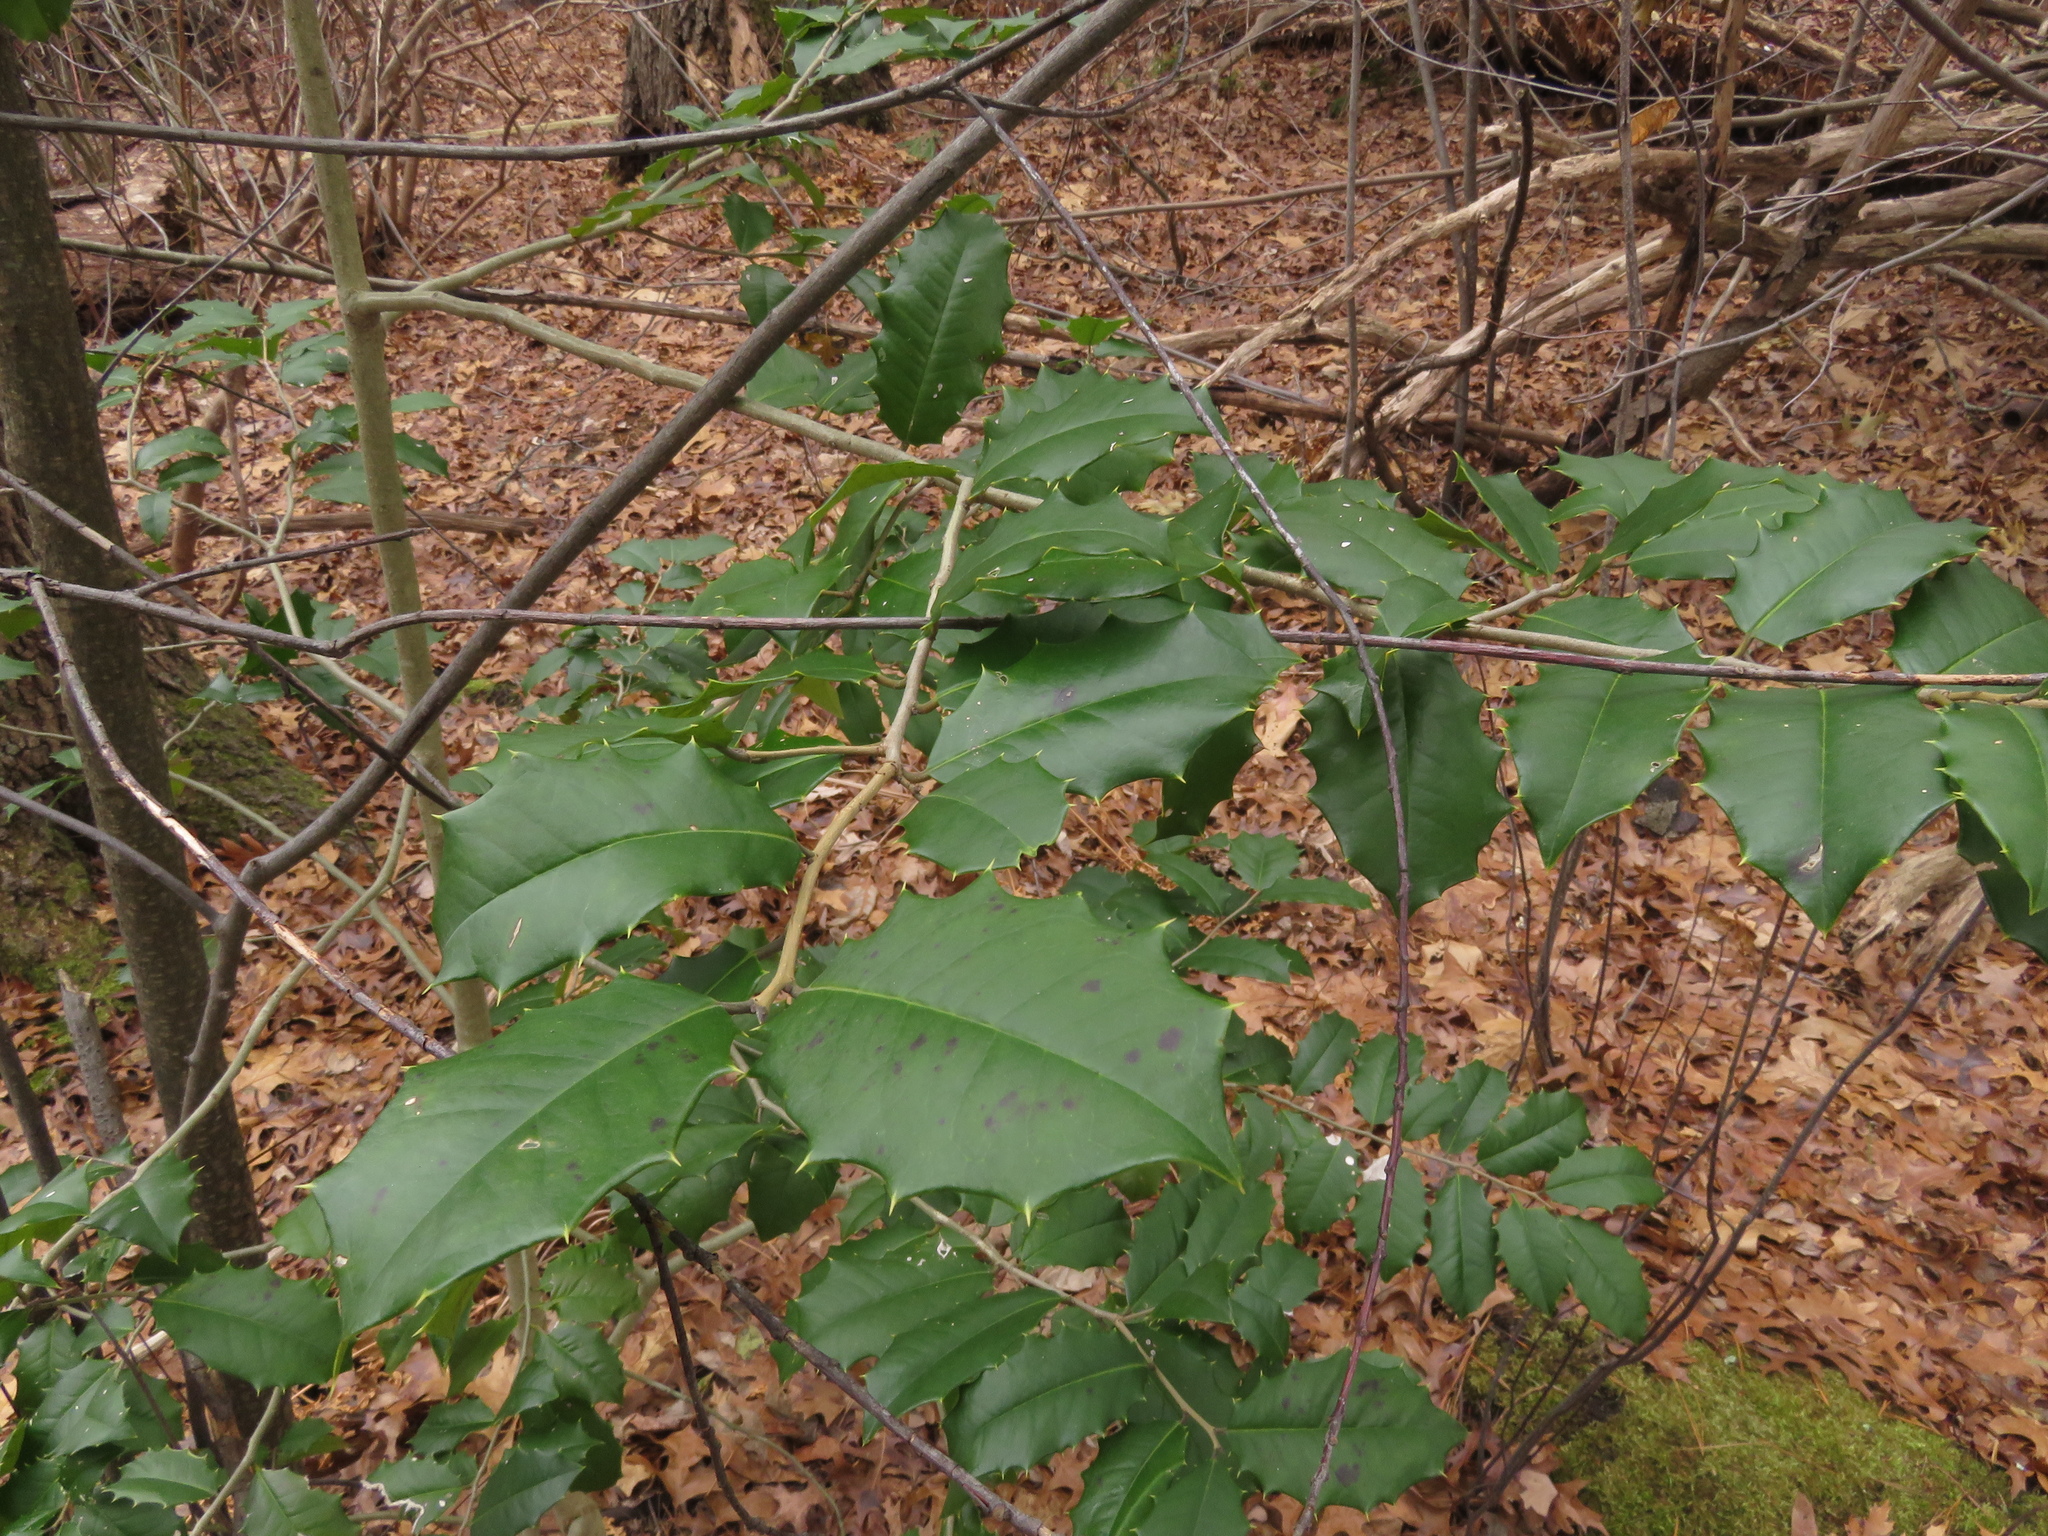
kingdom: Plantae
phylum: Tracheophyta
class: Magnoliopsida
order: Aquifoliales
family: Aquifoliaceae
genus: Ilex
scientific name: Ilex opaca
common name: American holly
